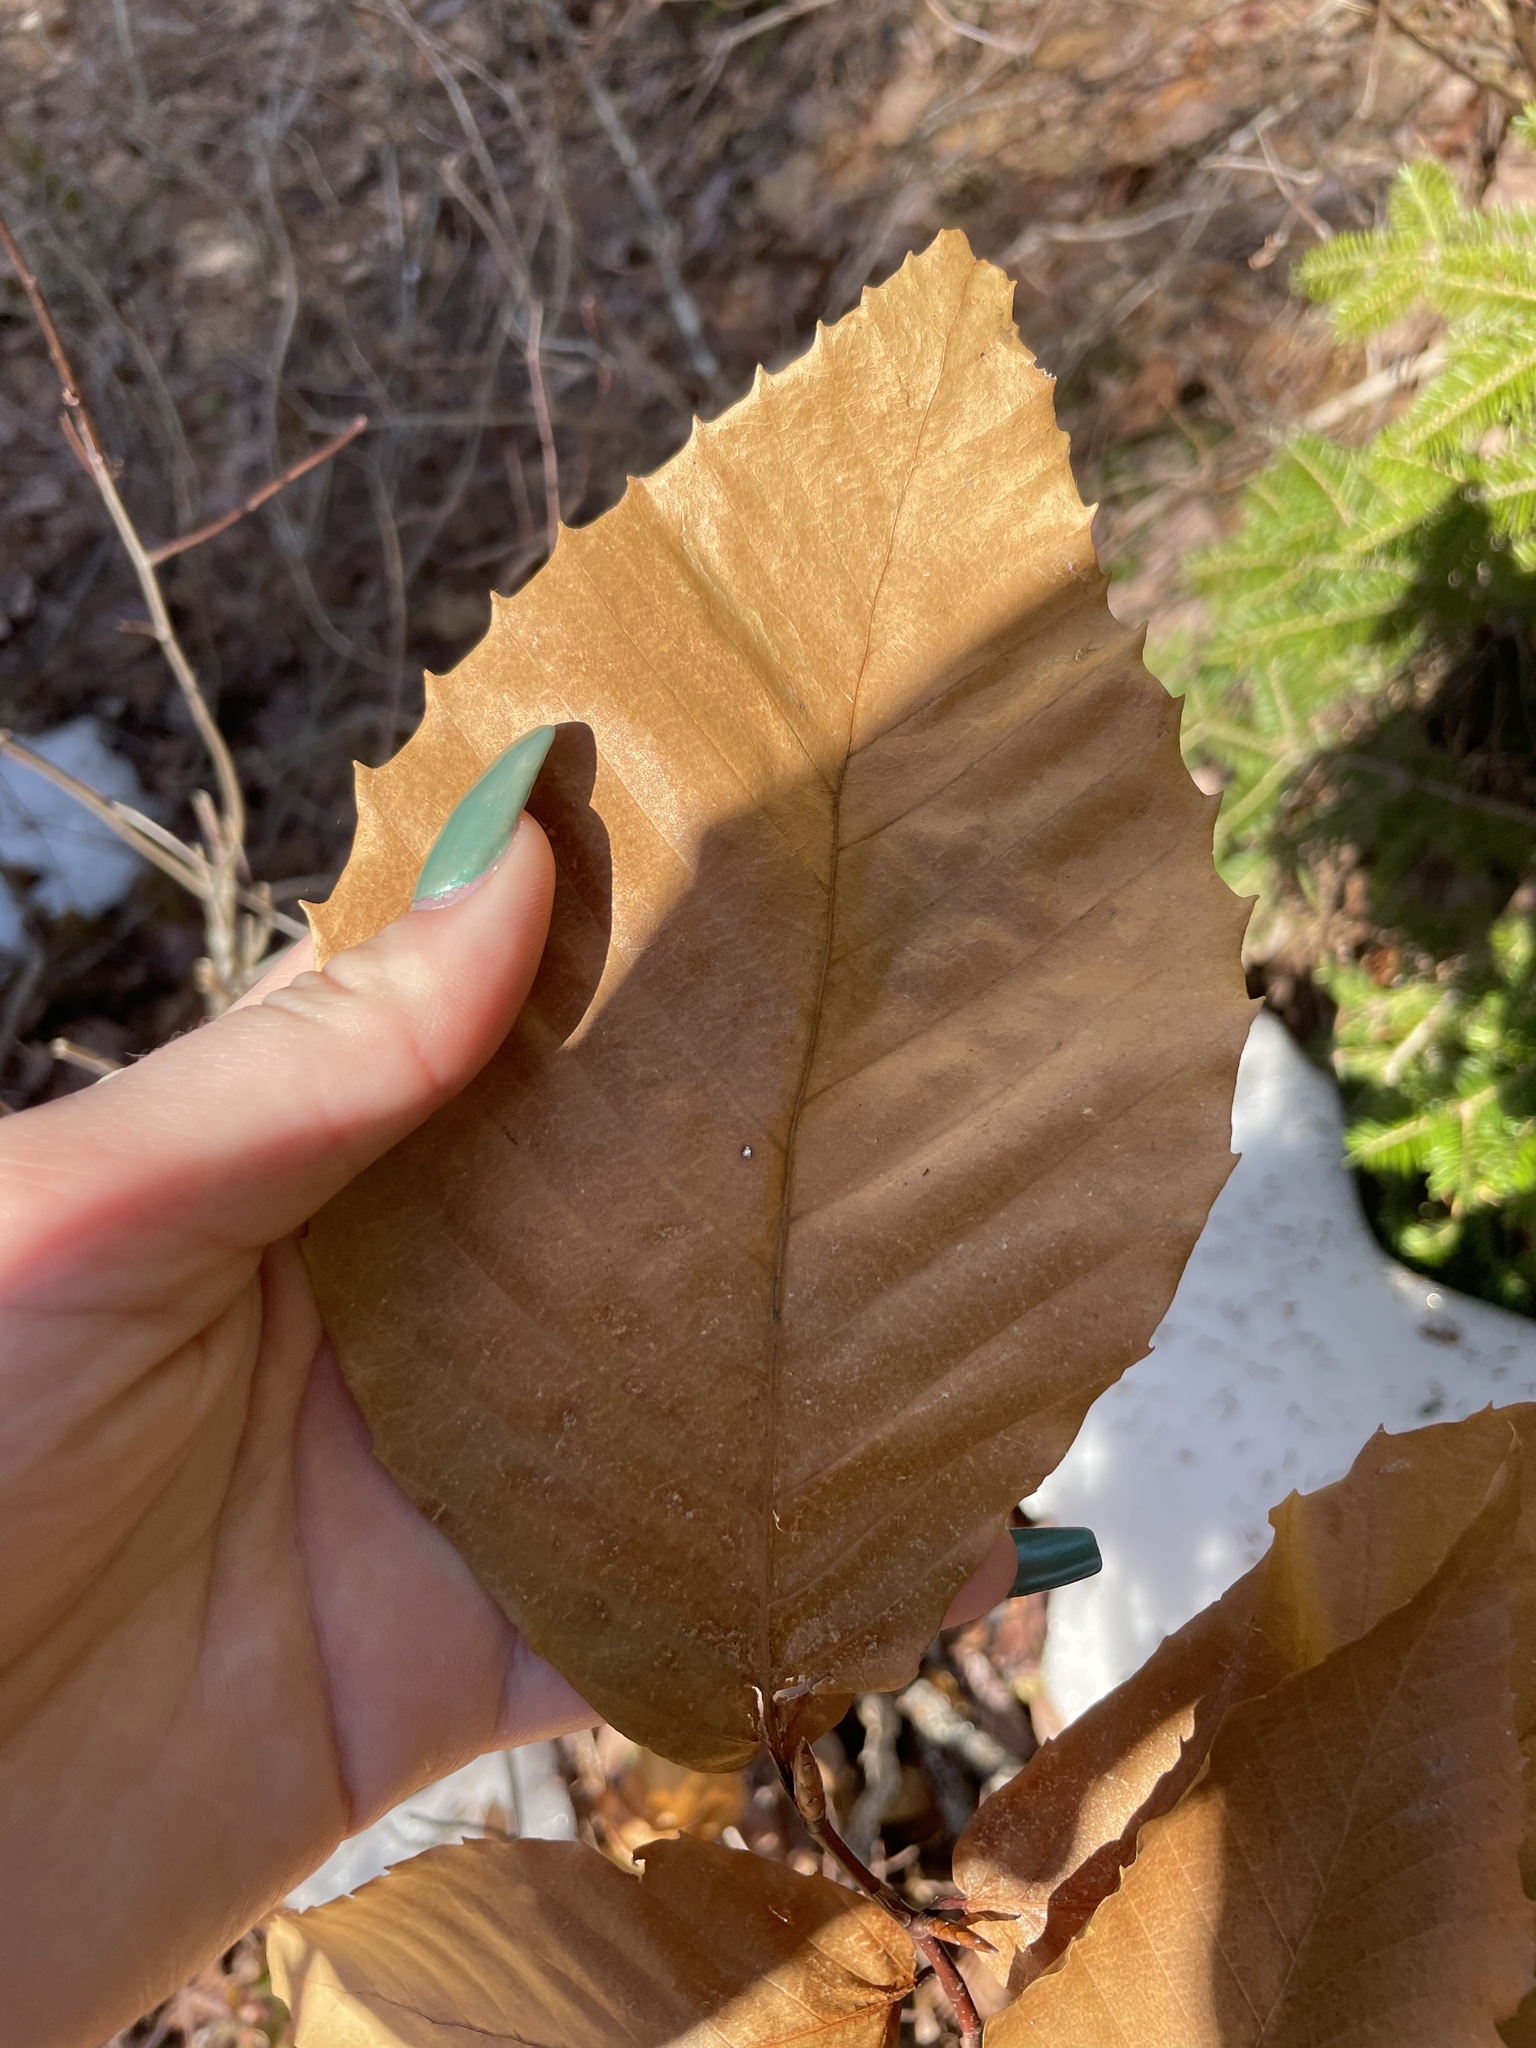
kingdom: Plantae
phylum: Tracheophyta
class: Magnoliopsida
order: Fagales
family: Fagaceae
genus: Fagus
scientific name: Fagus grandifolia
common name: American beech
